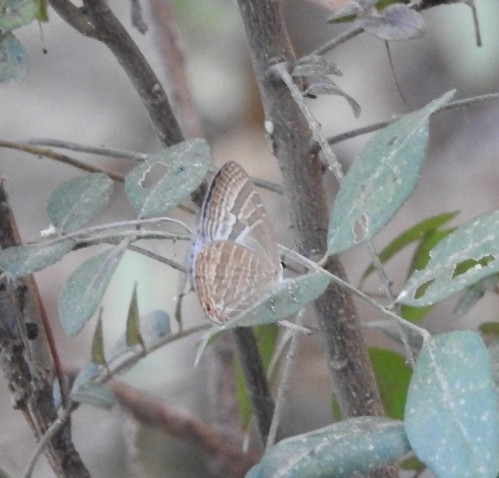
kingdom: Animalia
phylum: Arthropoda
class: Insecta
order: Lepidoptera
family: Lycaenidae
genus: Jamides
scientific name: Jamides celeno
